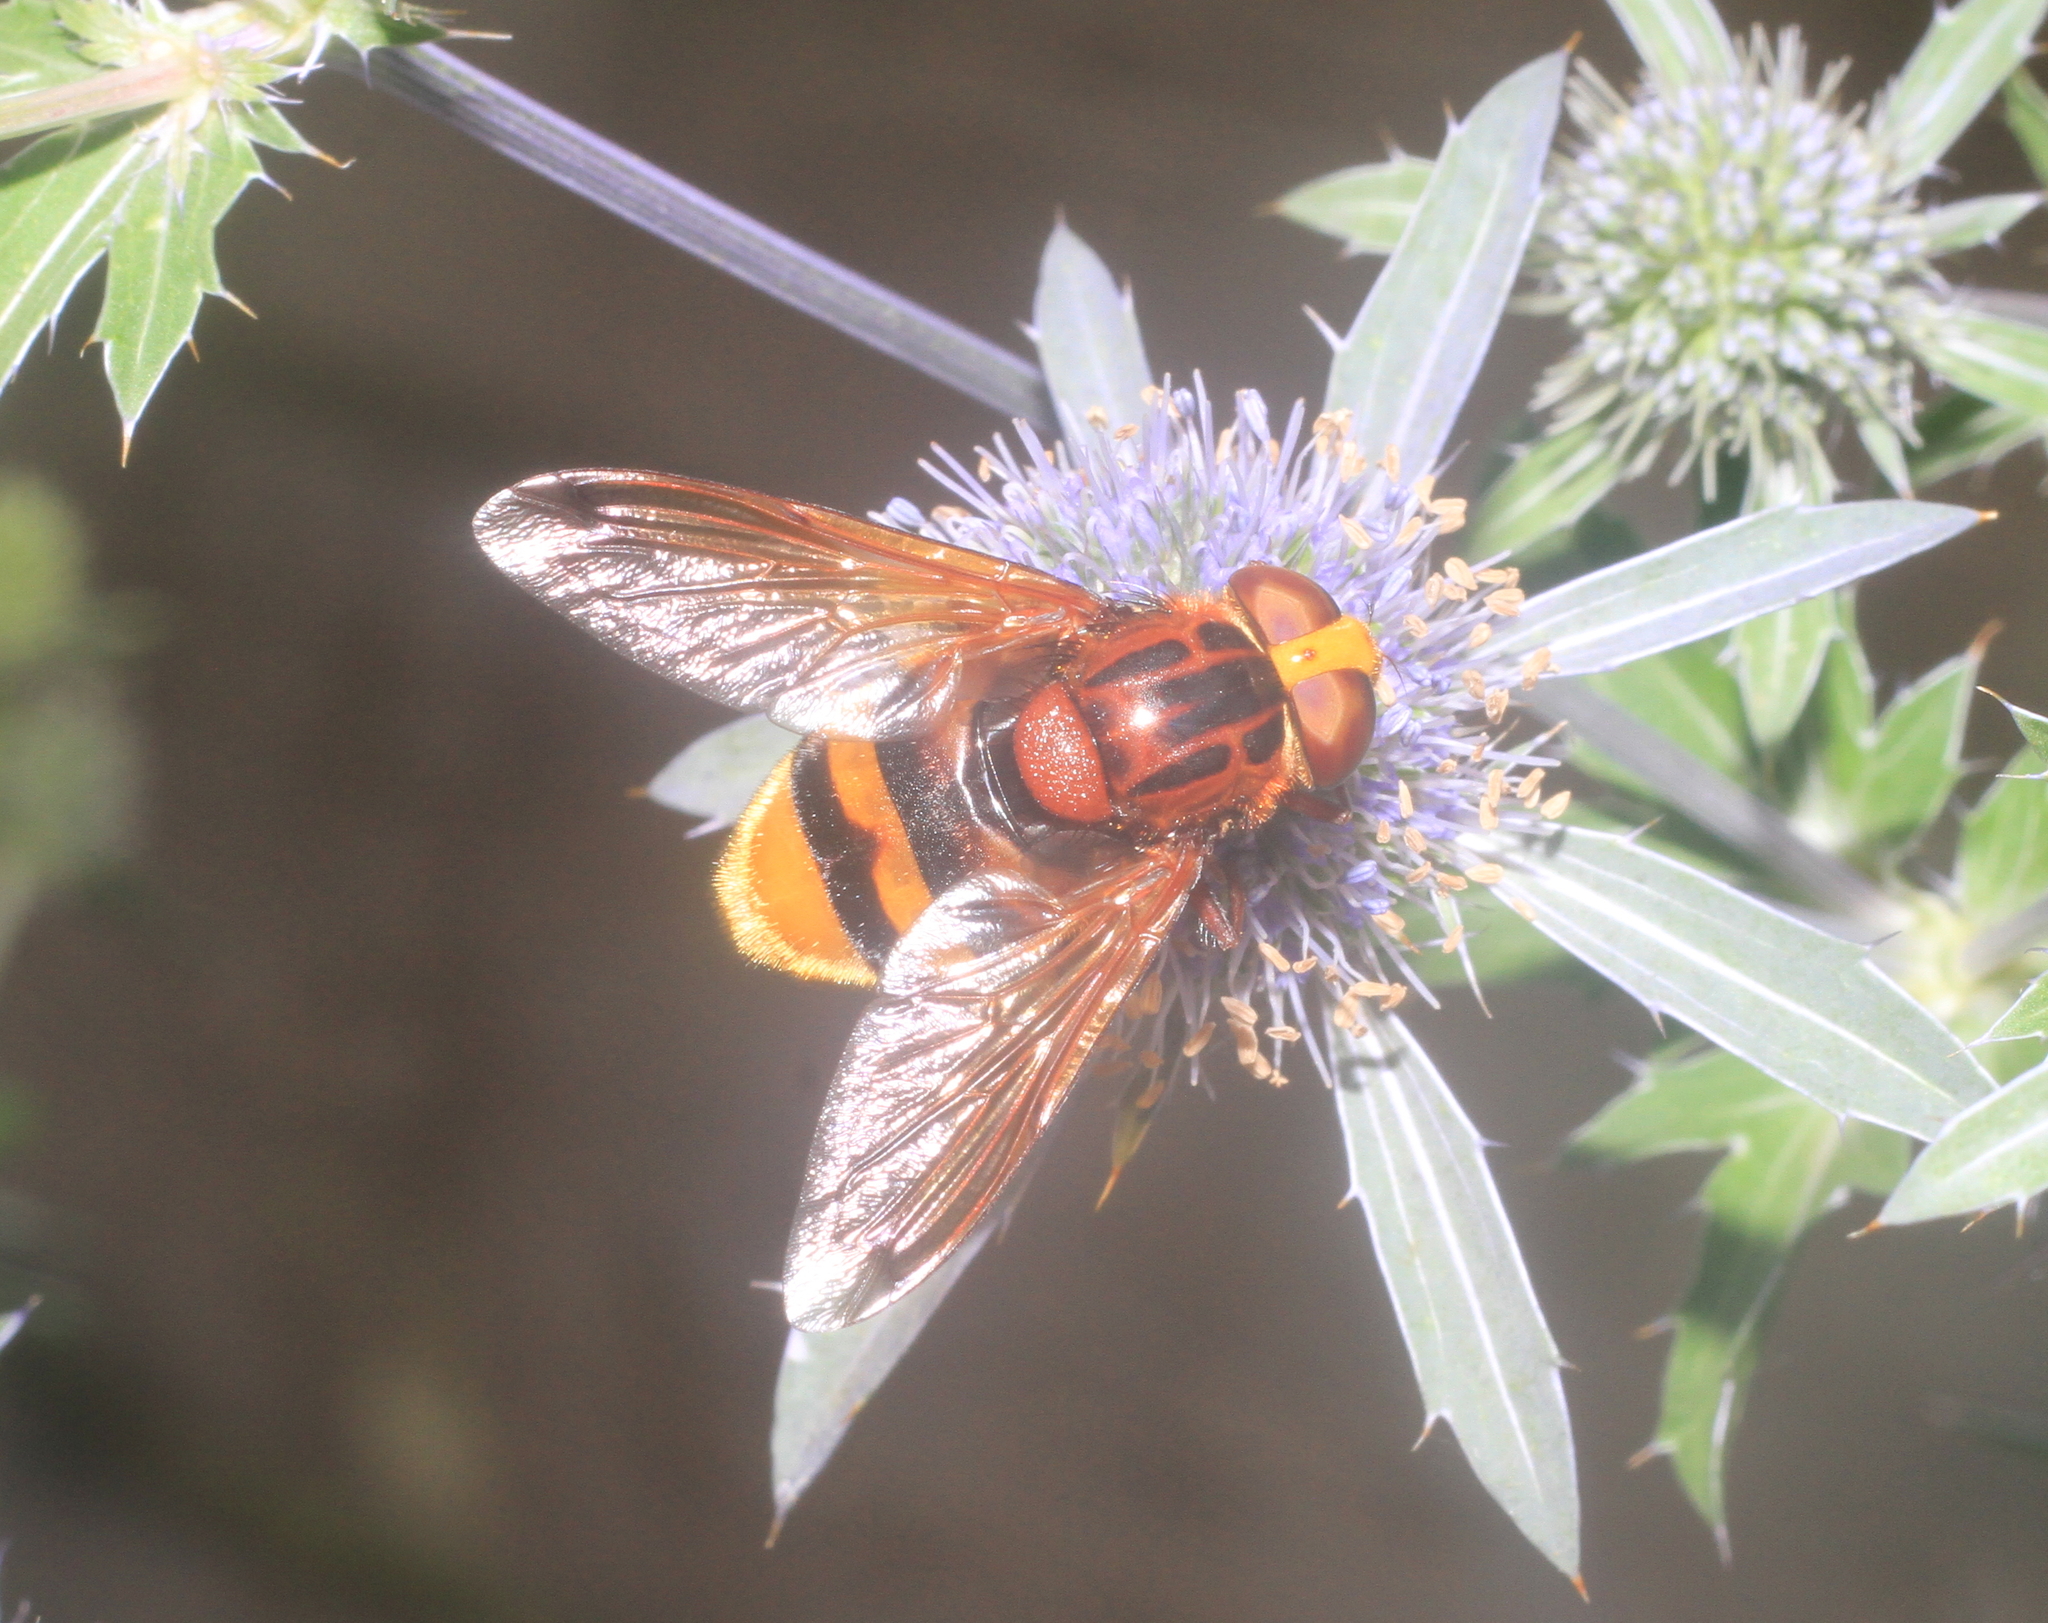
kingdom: Animalia
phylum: Arthropoda
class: Insecta
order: Diptera
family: Syrphidae
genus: Volucella
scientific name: Volucella zonaria
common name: Hornet hoverfly
